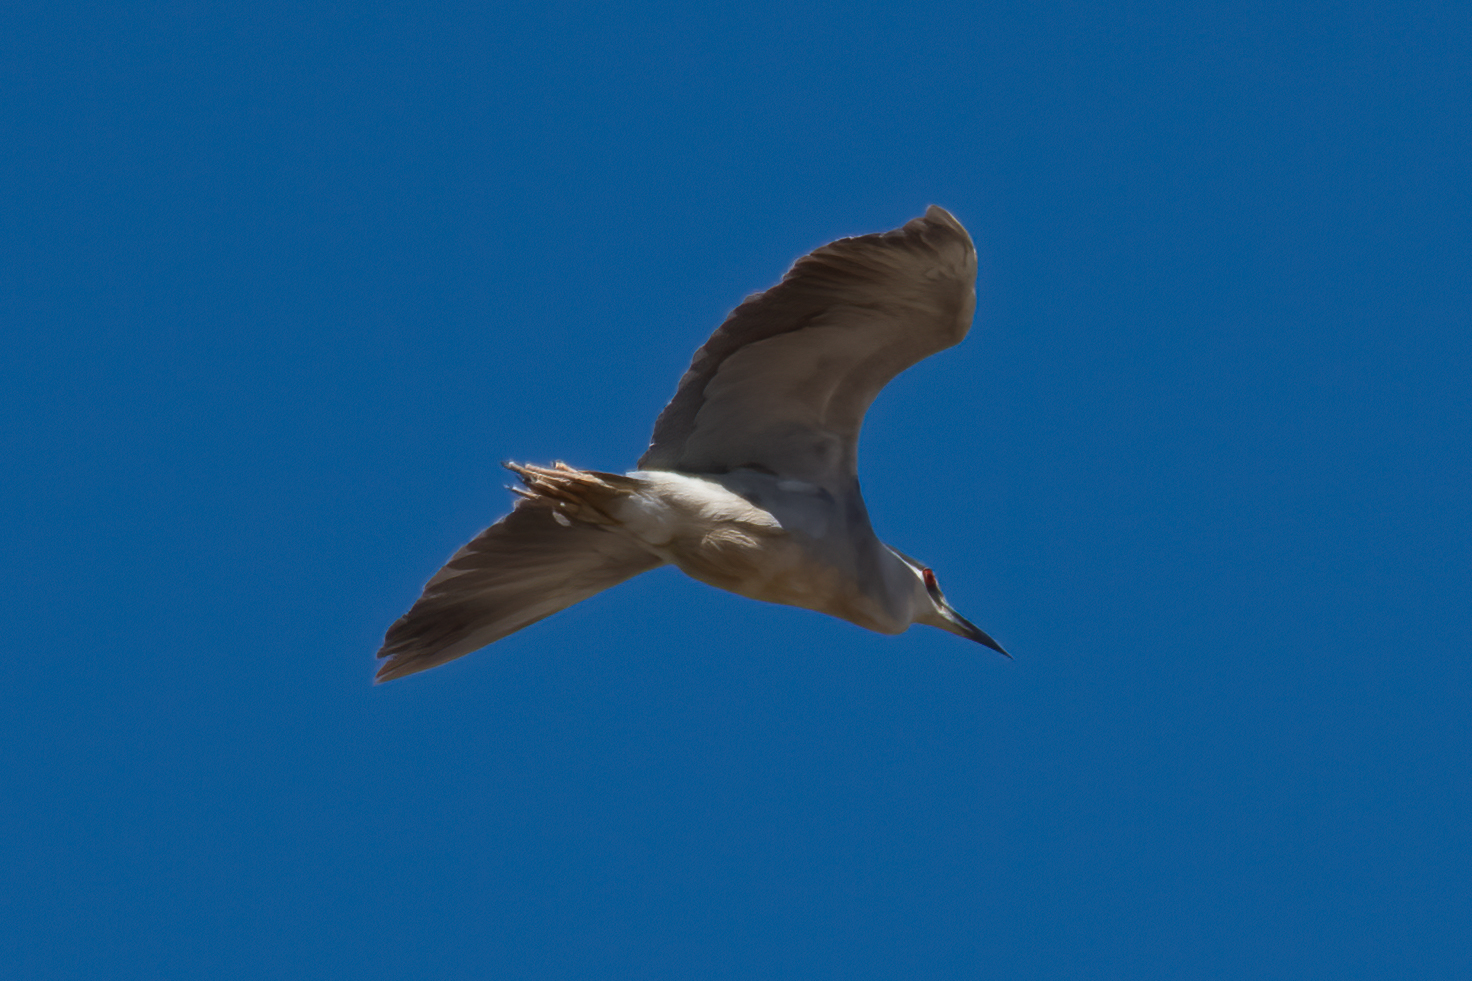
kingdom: Animalia
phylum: Chordata
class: Aves
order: Pelecaniformes
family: Ardeidae
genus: Nycticorax
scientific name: Nycticorax nycticorax
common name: Black-crowned night heron
